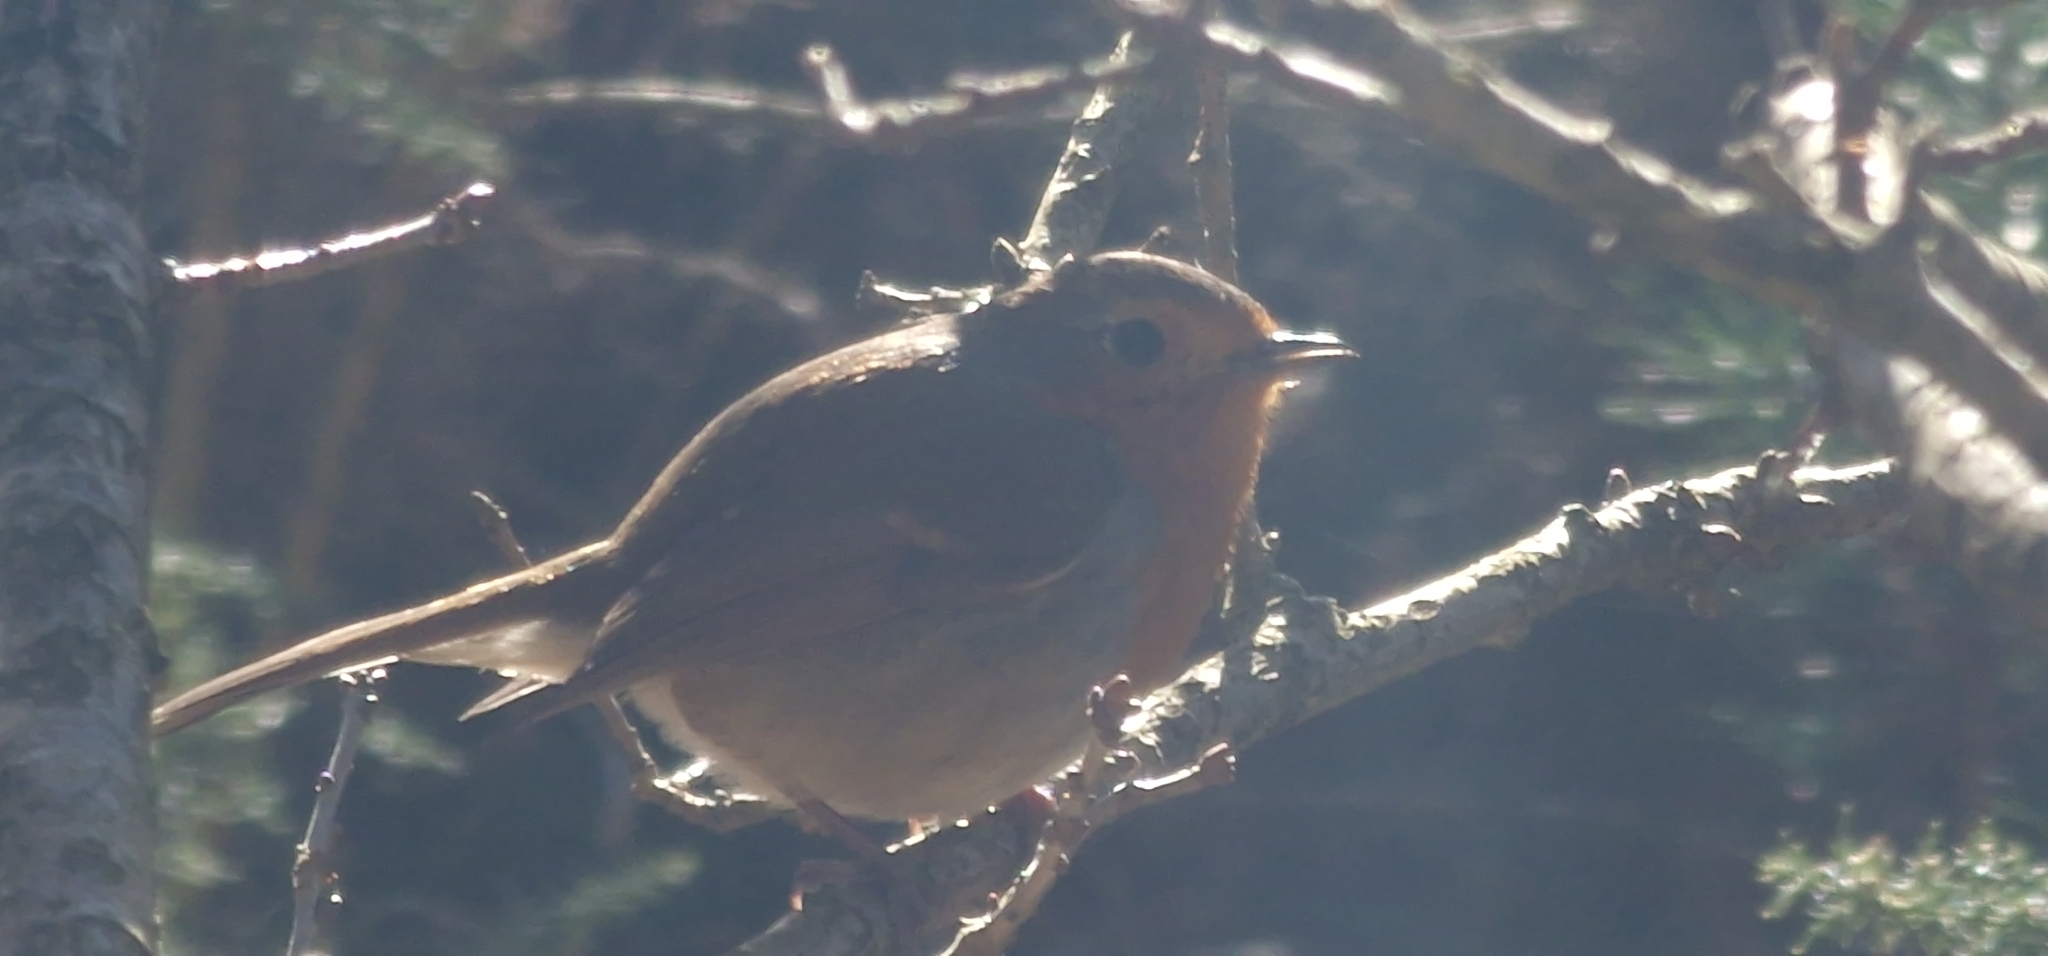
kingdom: Animalia
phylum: Chordata
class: Aves
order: Passeriformes
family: Muscicapidae
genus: Erithacus
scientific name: Erithacus rubecula
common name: European robin
